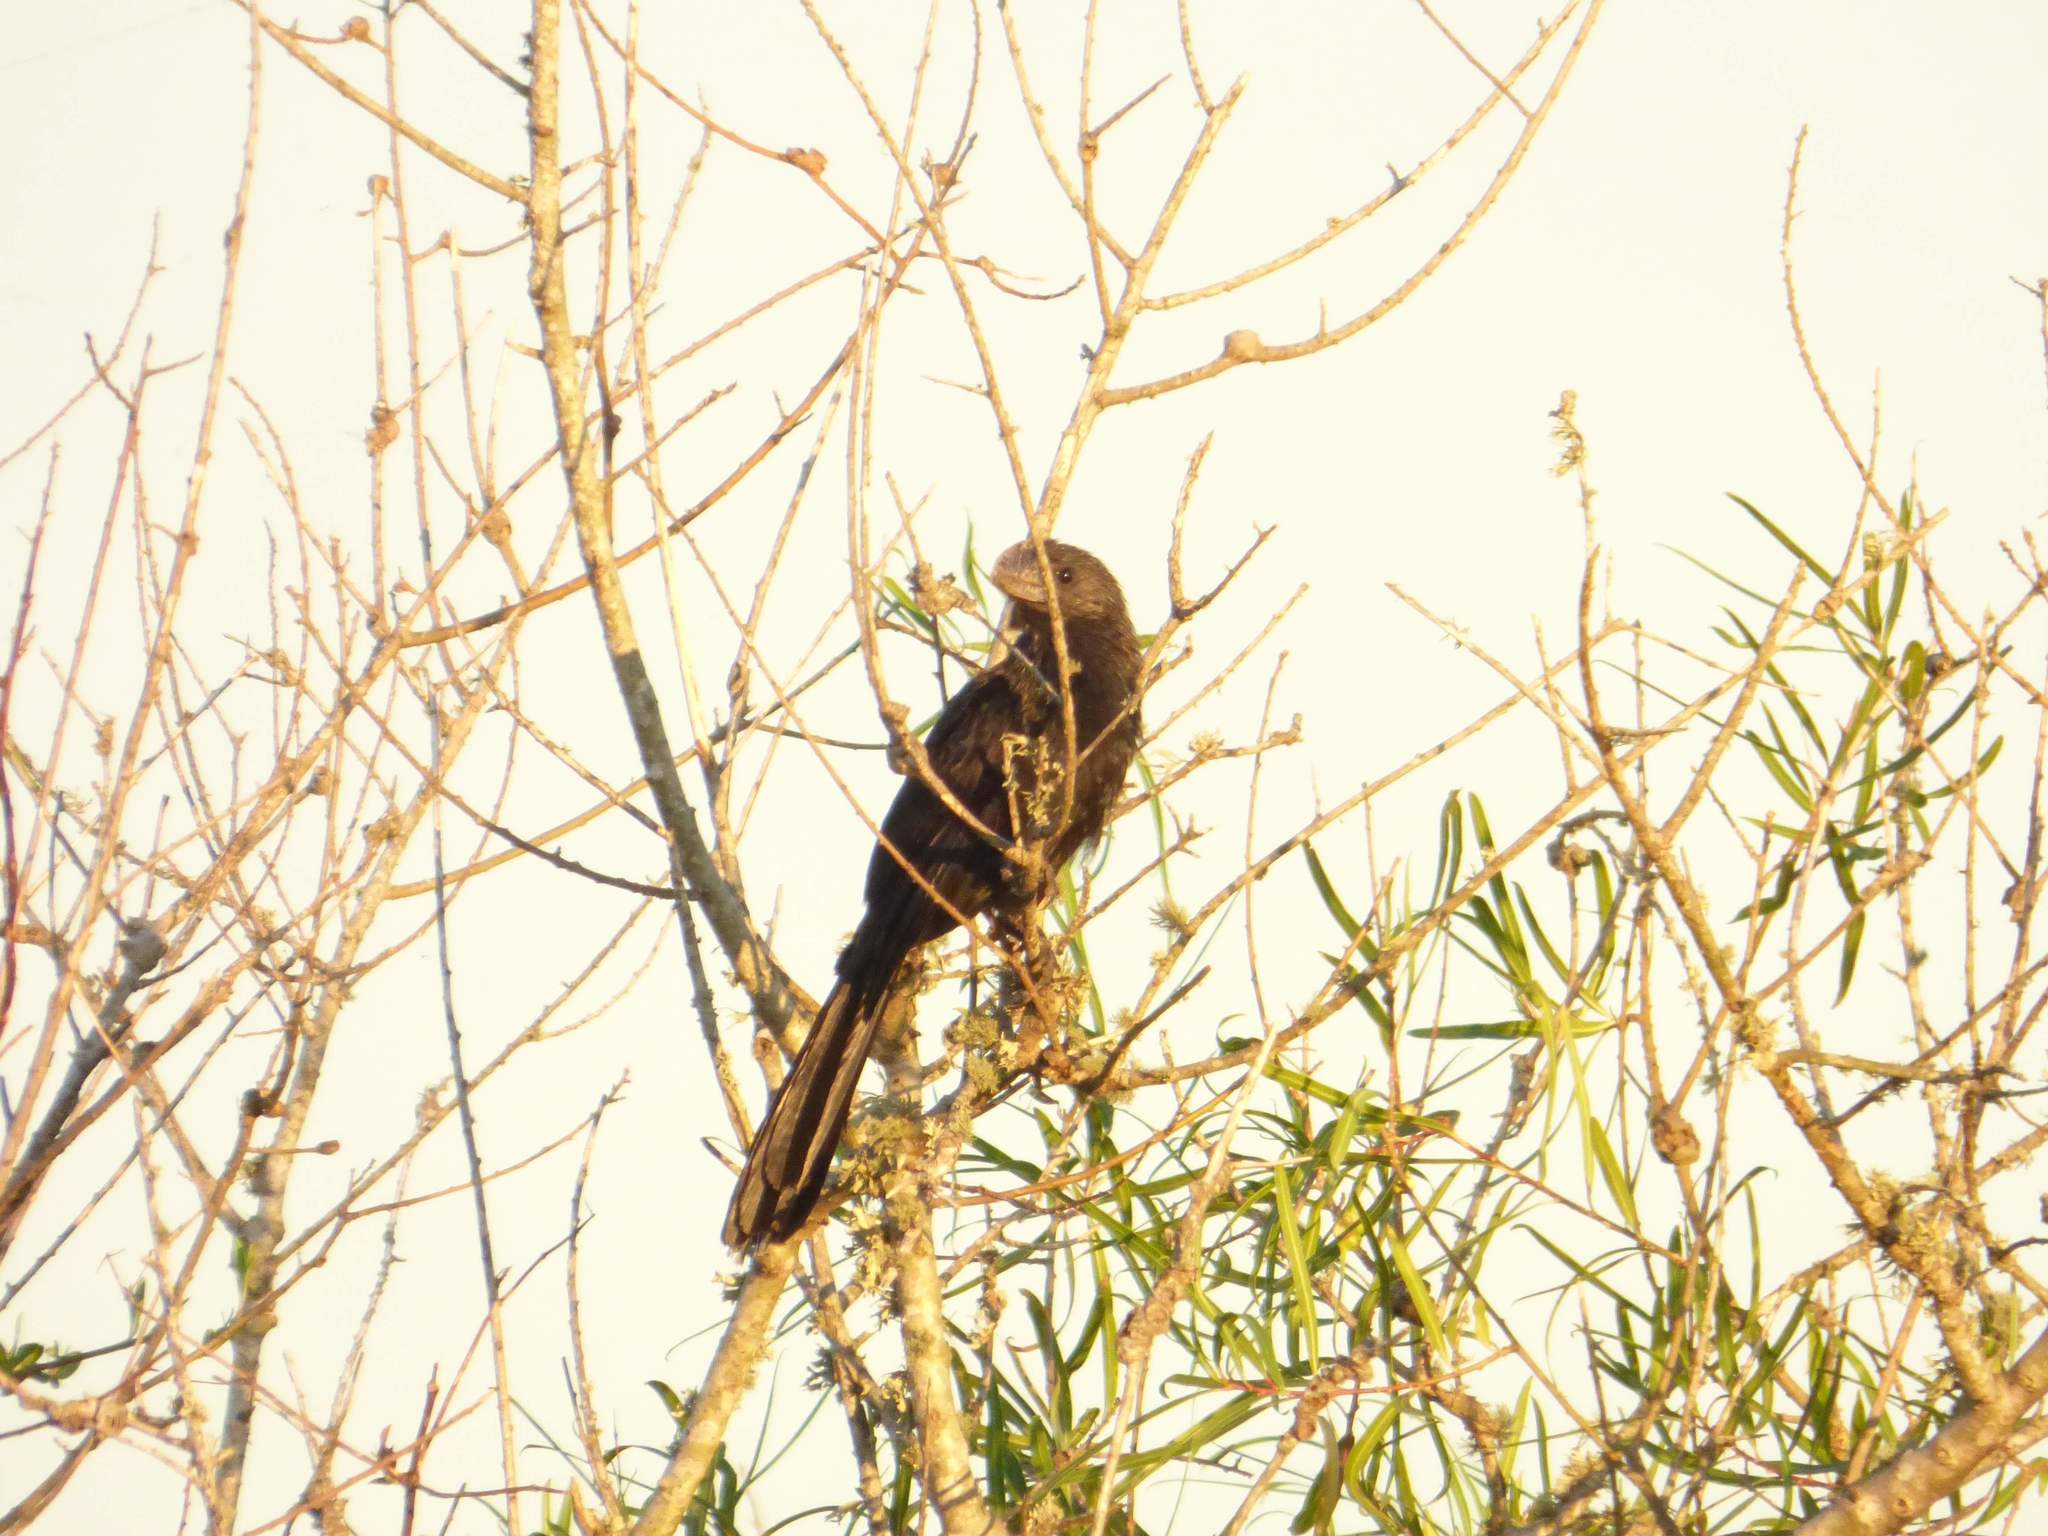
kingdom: Animalia
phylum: Chordata
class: Aves
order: Cuculiformes
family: Cuculidae
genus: Crotophaga
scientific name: Crotophaga ani
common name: Smooth-billed ani
